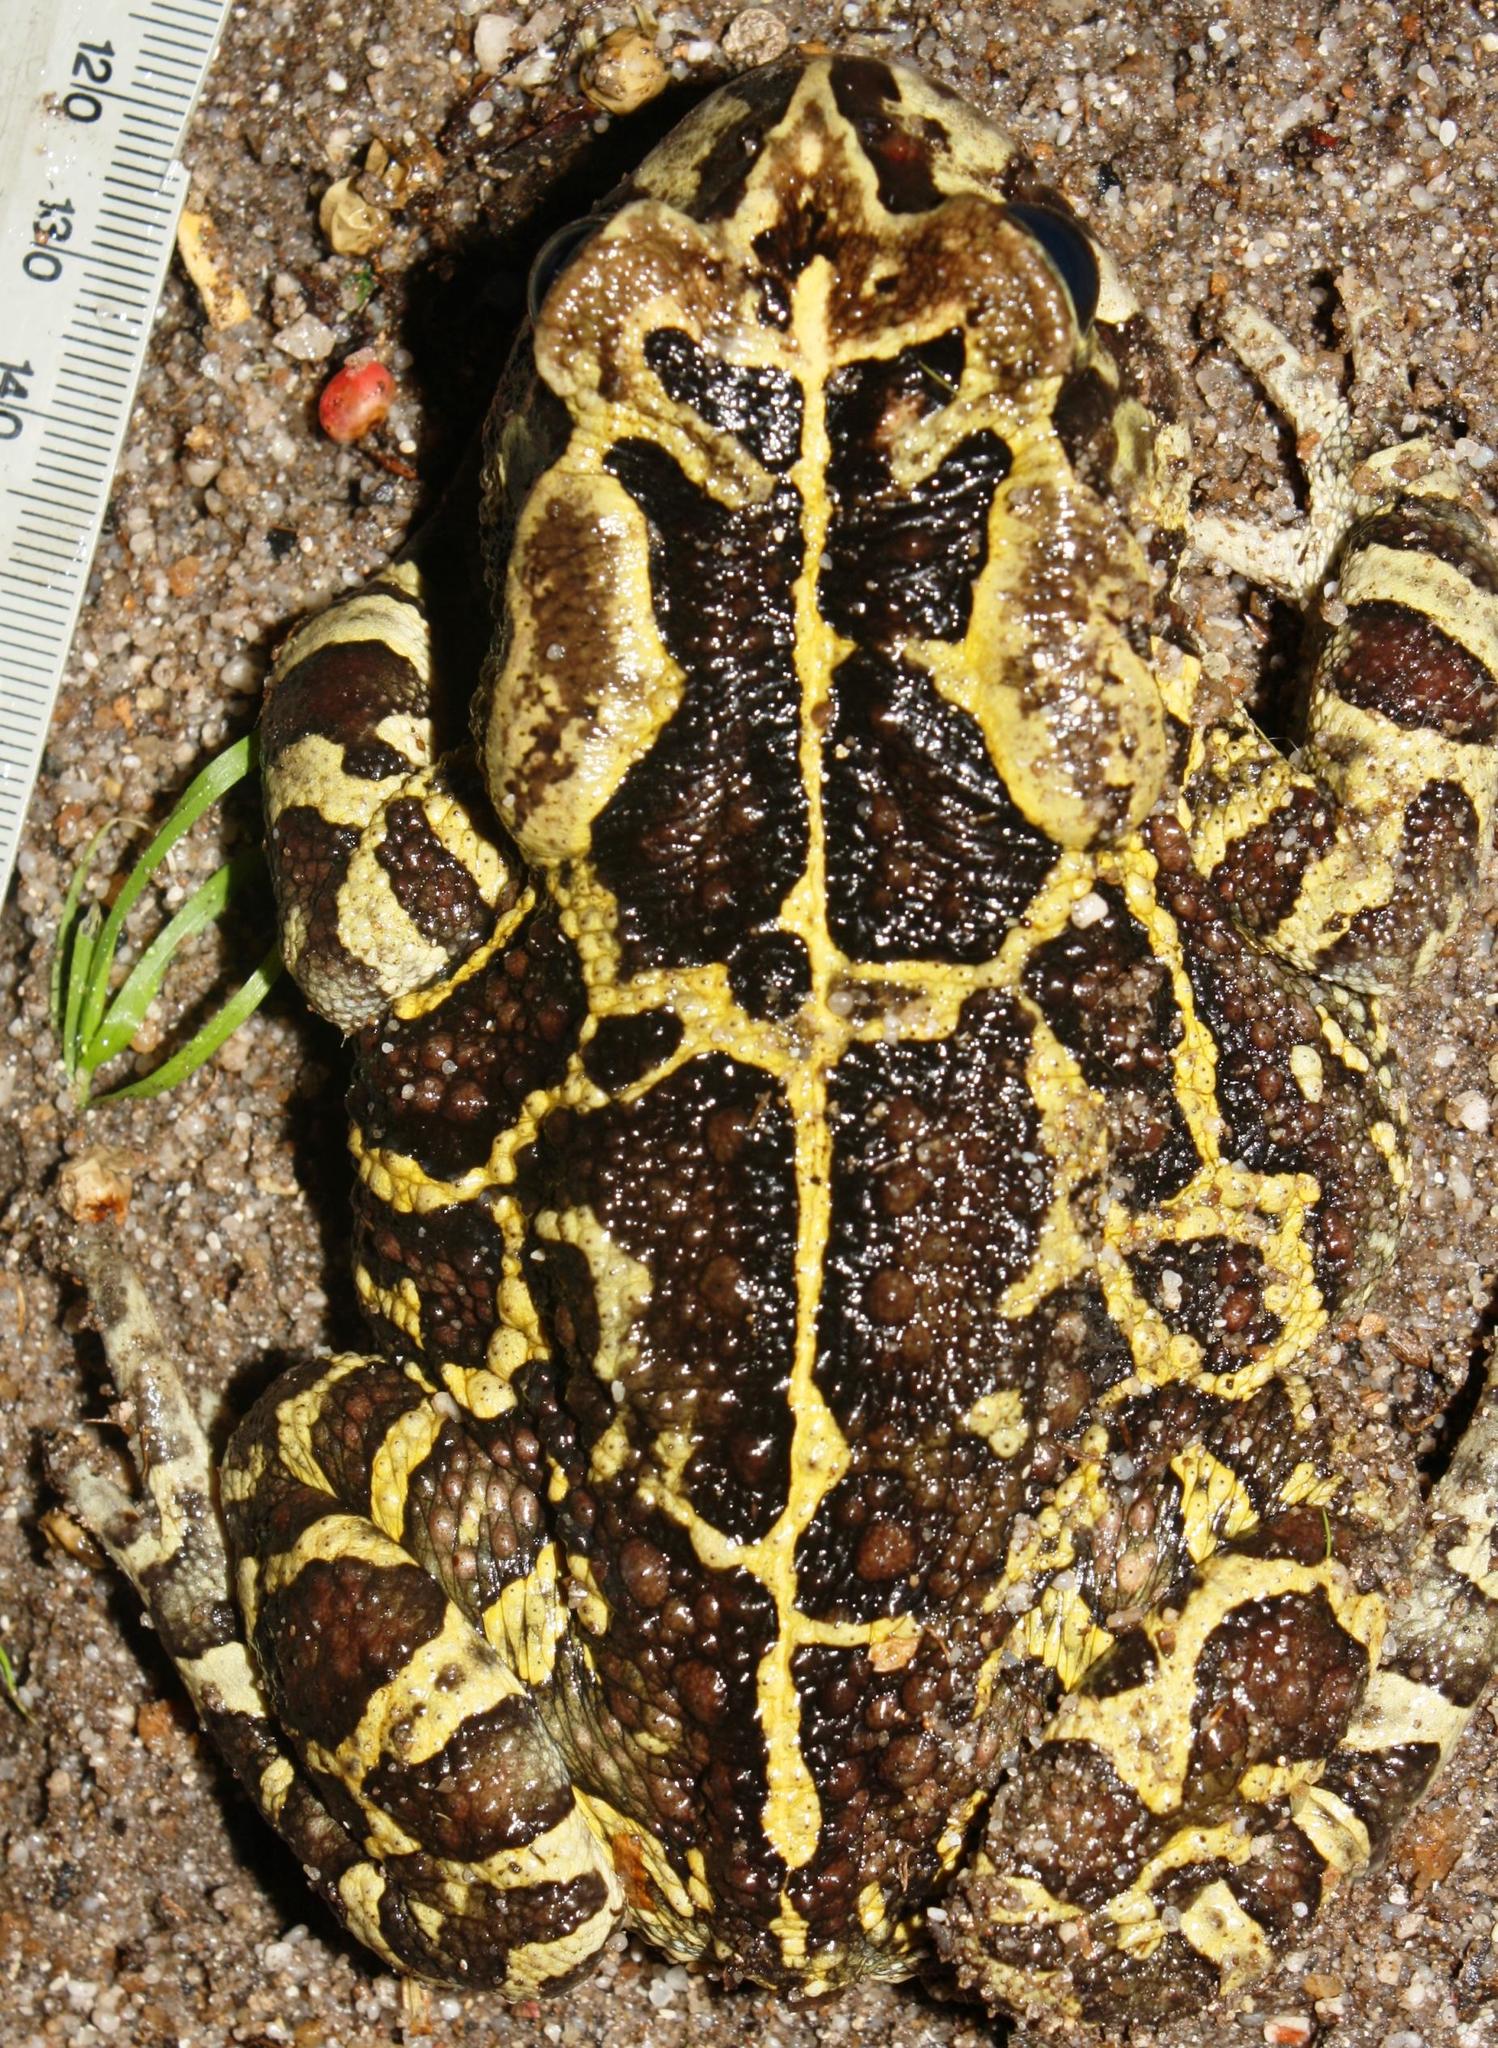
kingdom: Animalia
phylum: Chordata
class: Amphibia
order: Anura
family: Bufonidae
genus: Sclerophrys
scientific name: Sclerophrys pantherina
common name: Panther toad
